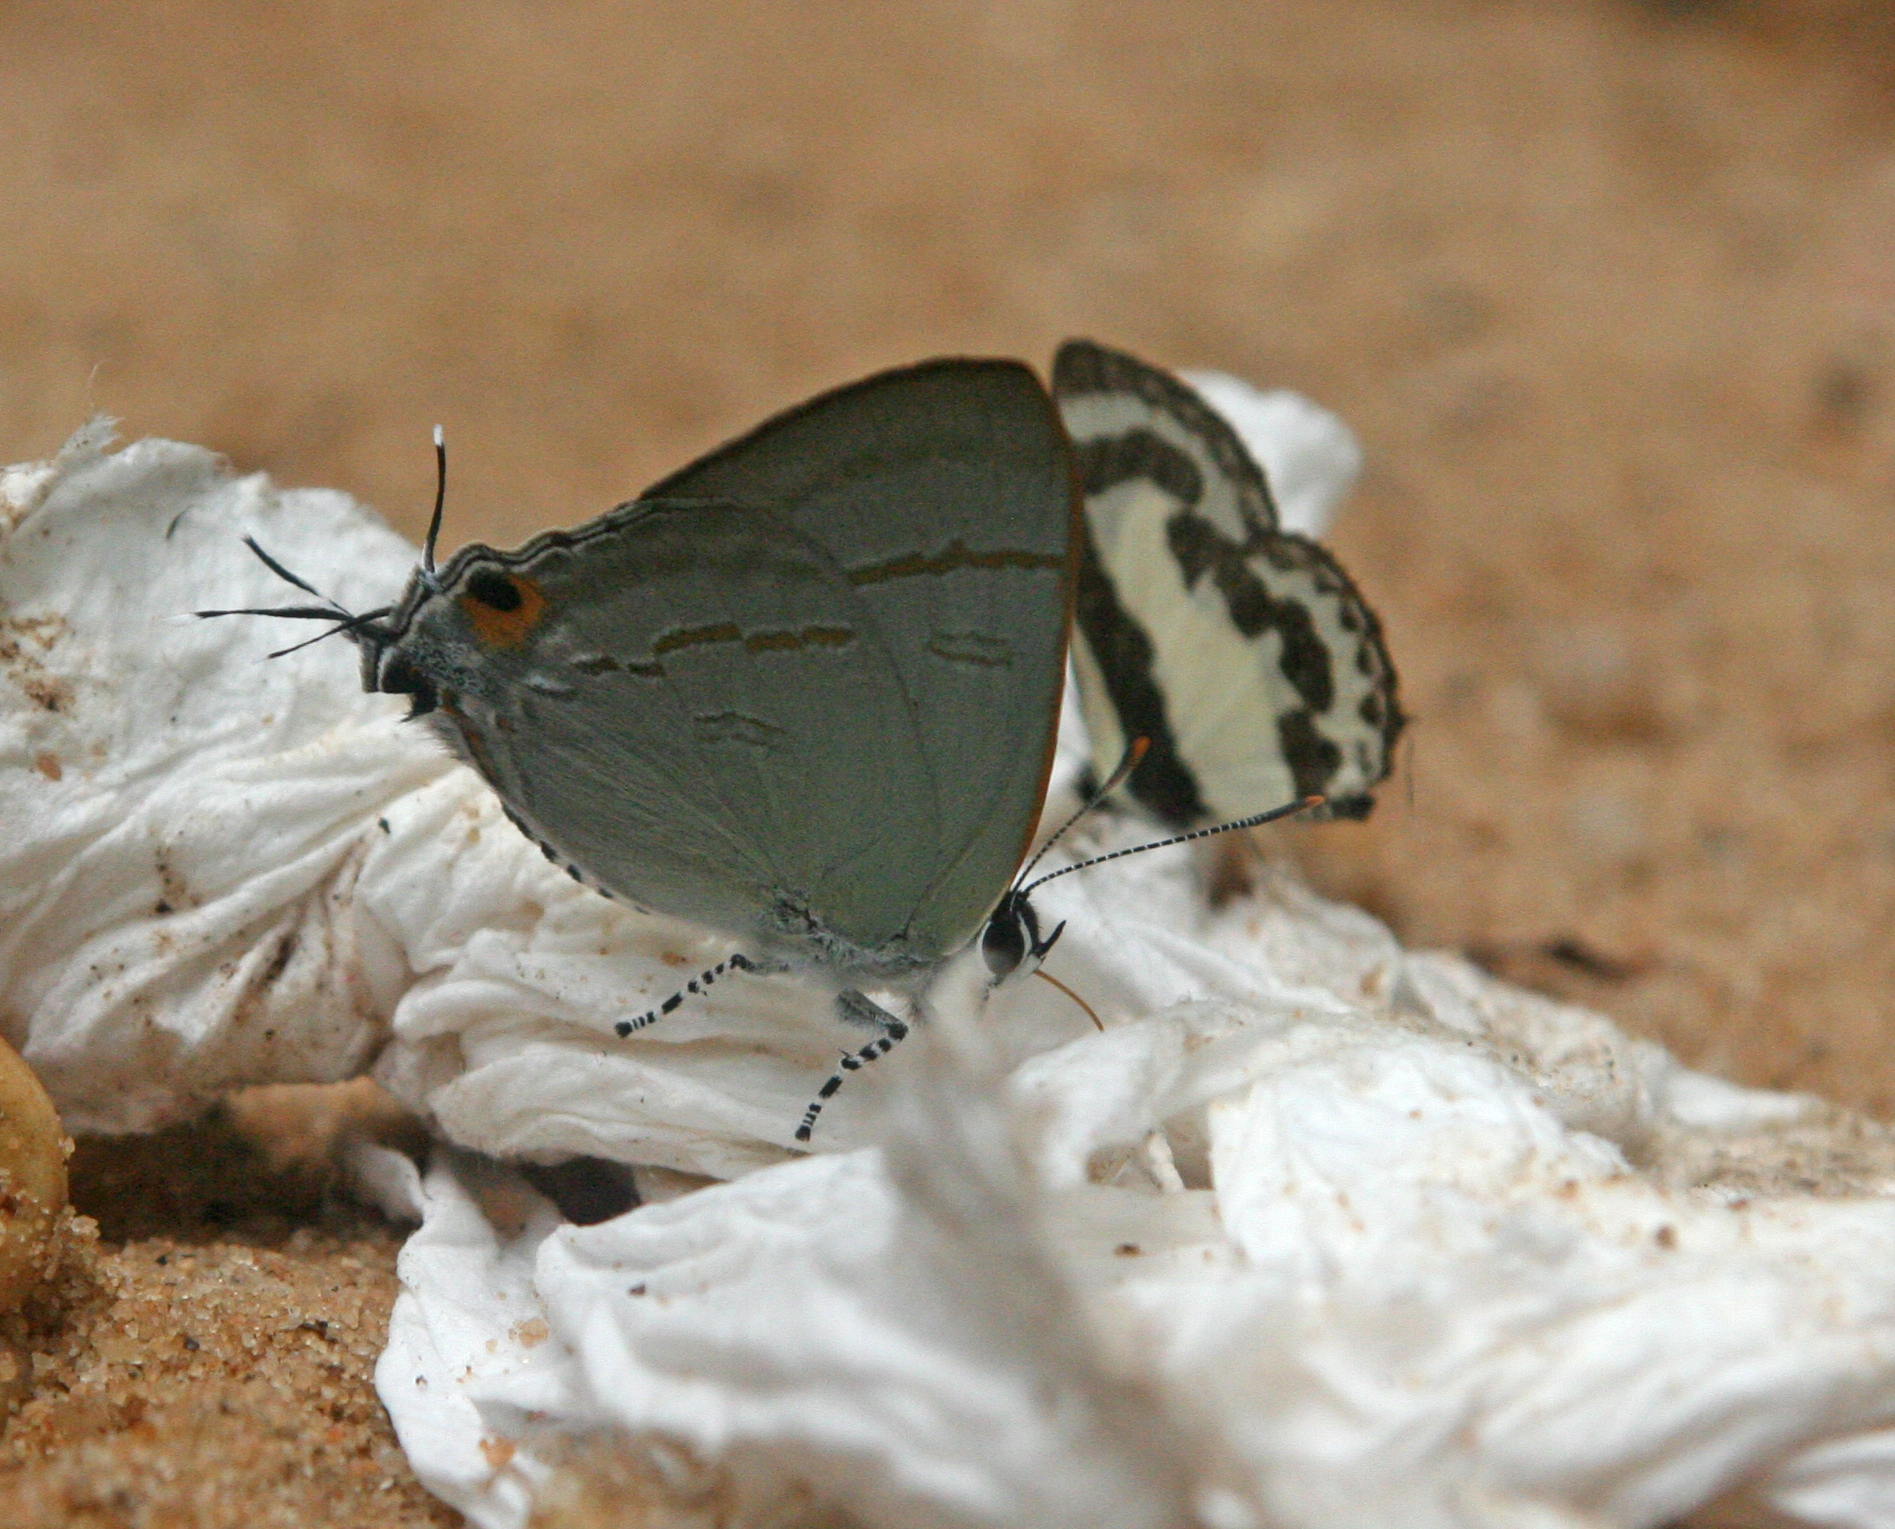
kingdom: Animalia
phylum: Arthropoda
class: Insecta
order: Lepidoptera
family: Lycaenidae
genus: Hypolycaena
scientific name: Hypolycaena erylus
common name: Common tit
